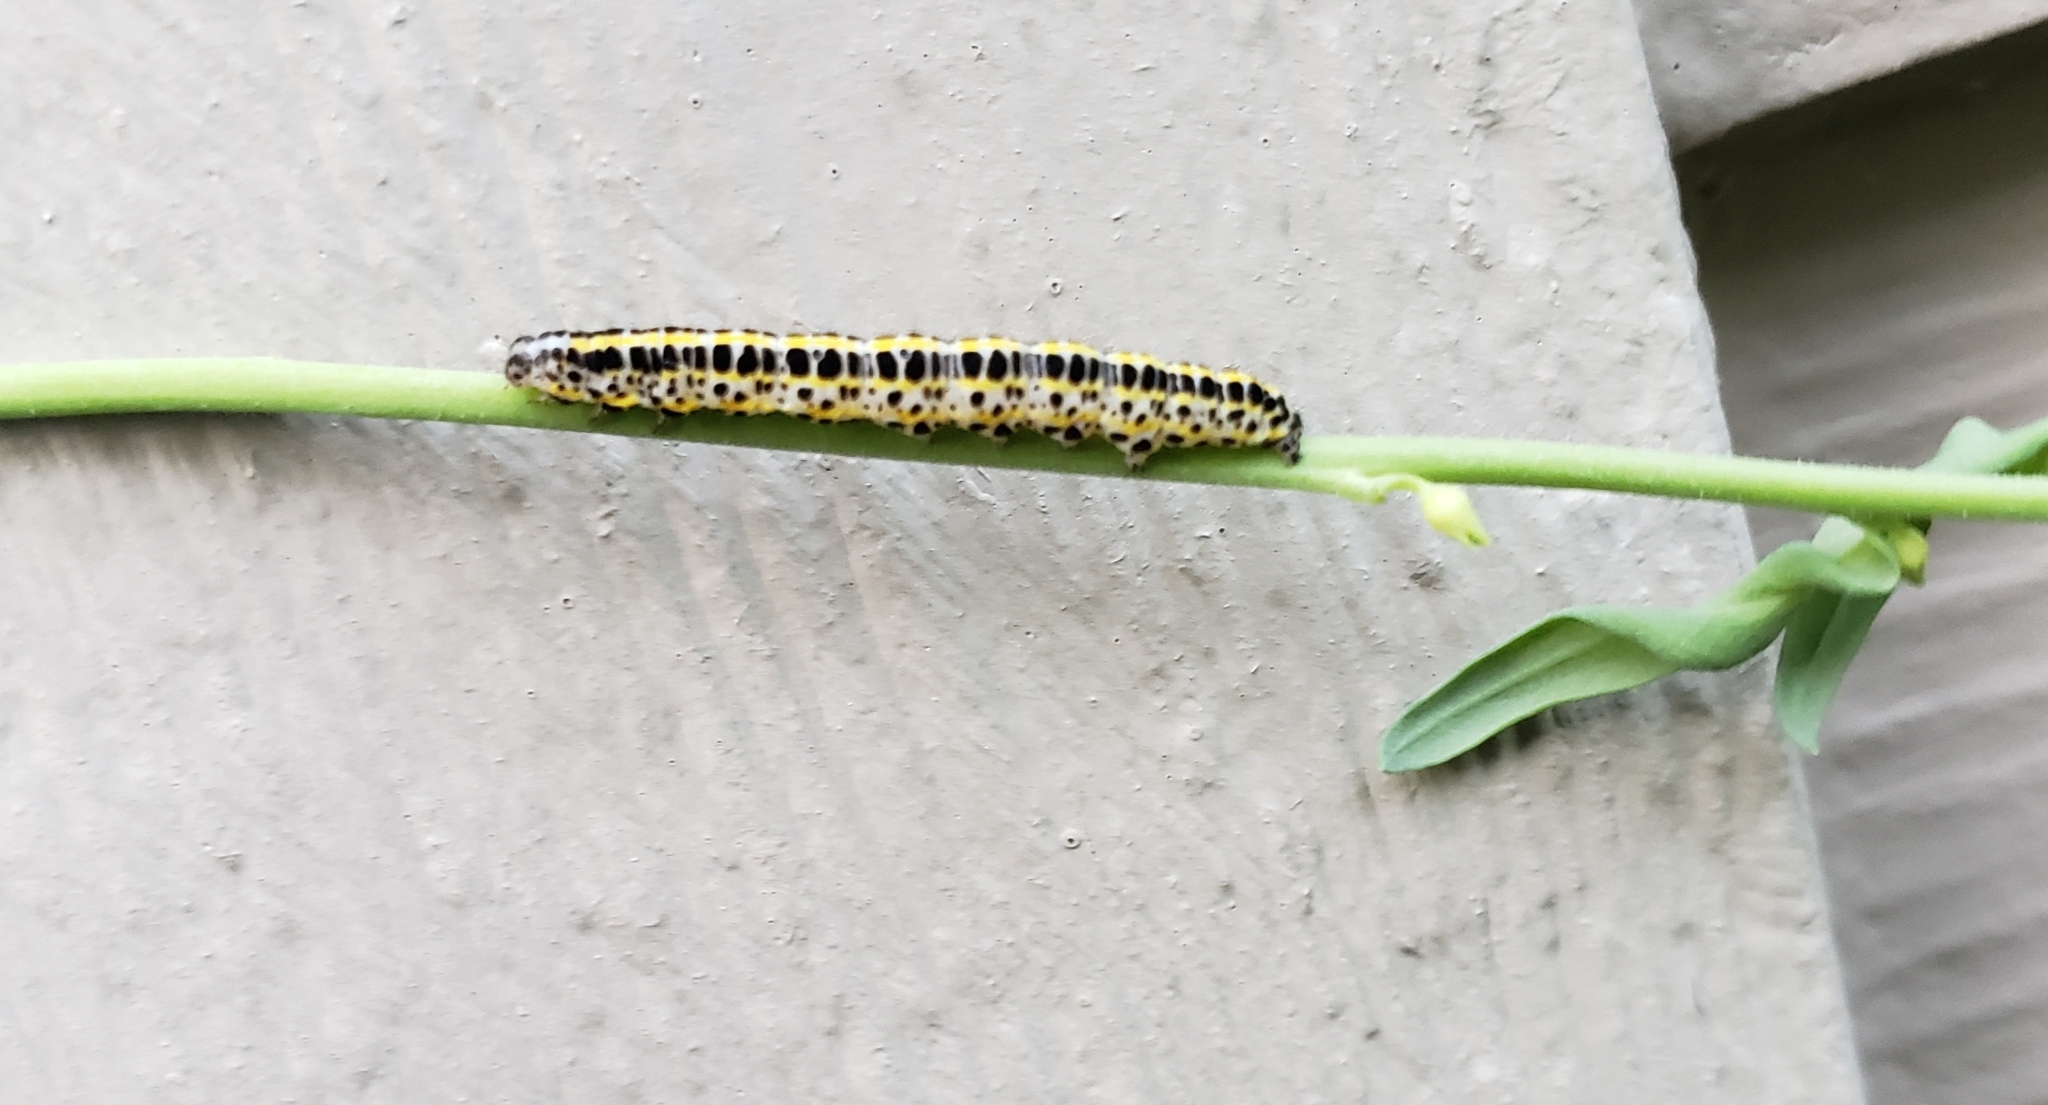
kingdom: Animalia
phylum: Arthropoda
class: Insecta
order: Lepidoptera
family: Noctuidae
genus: Calophasia
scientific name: Calophasia lunula
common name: Toadflax brocade
